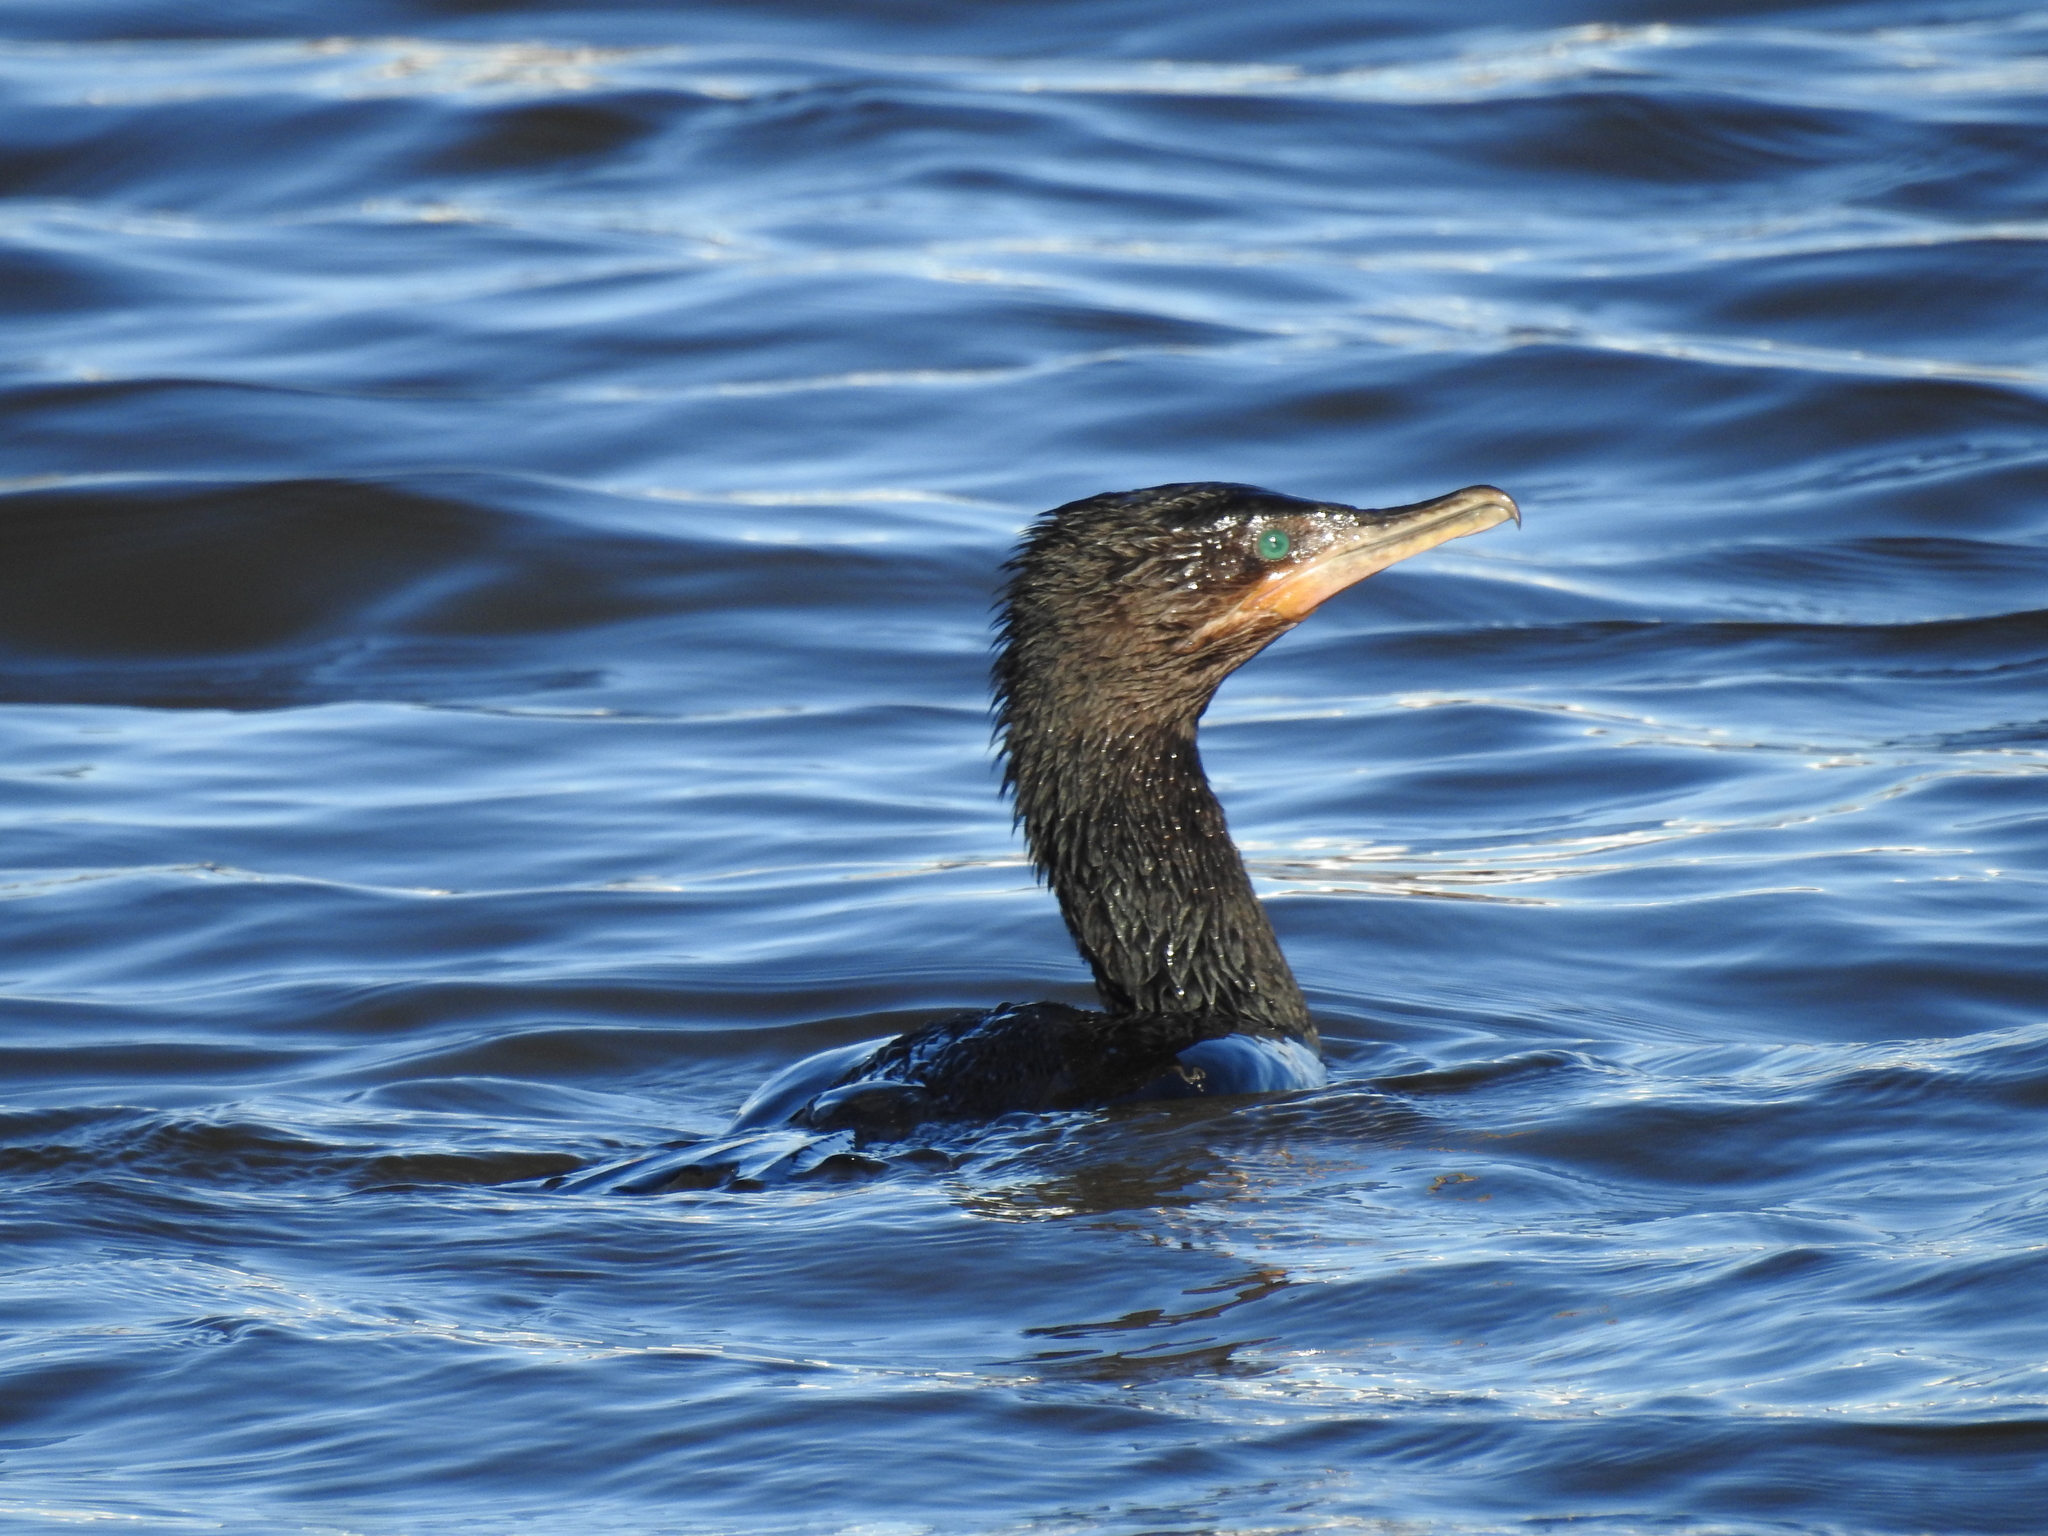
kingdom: Animalia
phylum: Chordata
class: Aves
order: Suliformes
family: Phalacrocoracidae
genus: Phalacrocorax
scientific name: Phalacrocorax brasilianus
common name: Neotropic cormorant
